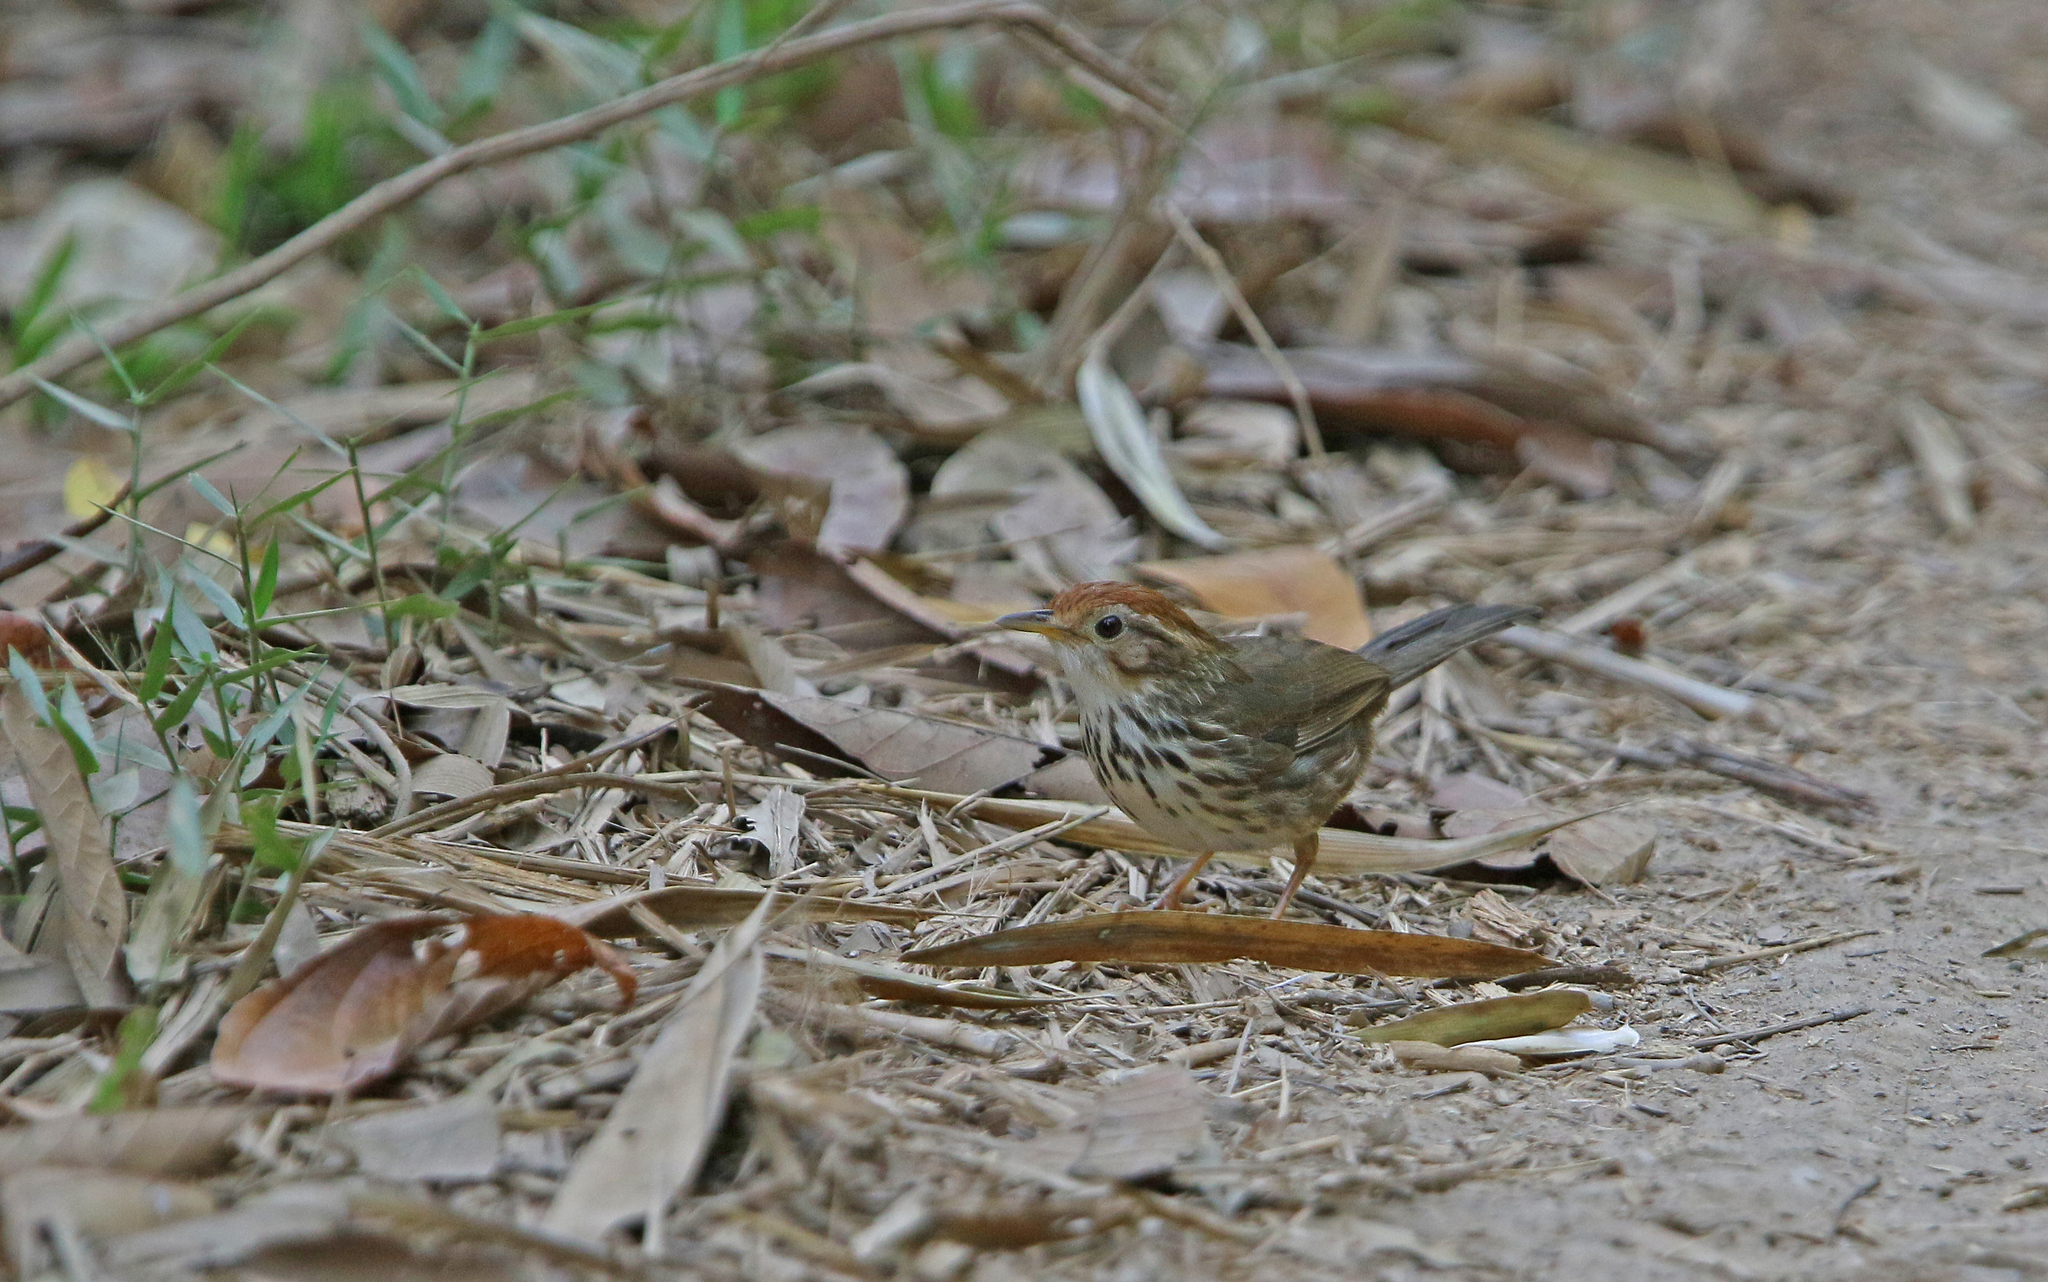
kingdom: Animalia
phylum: Chordata
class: Aves
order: Passeriformes
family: Pellorneidae
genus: Pellorneum
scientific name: Pellorneum ruficeps
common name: Puff-throated babbler
